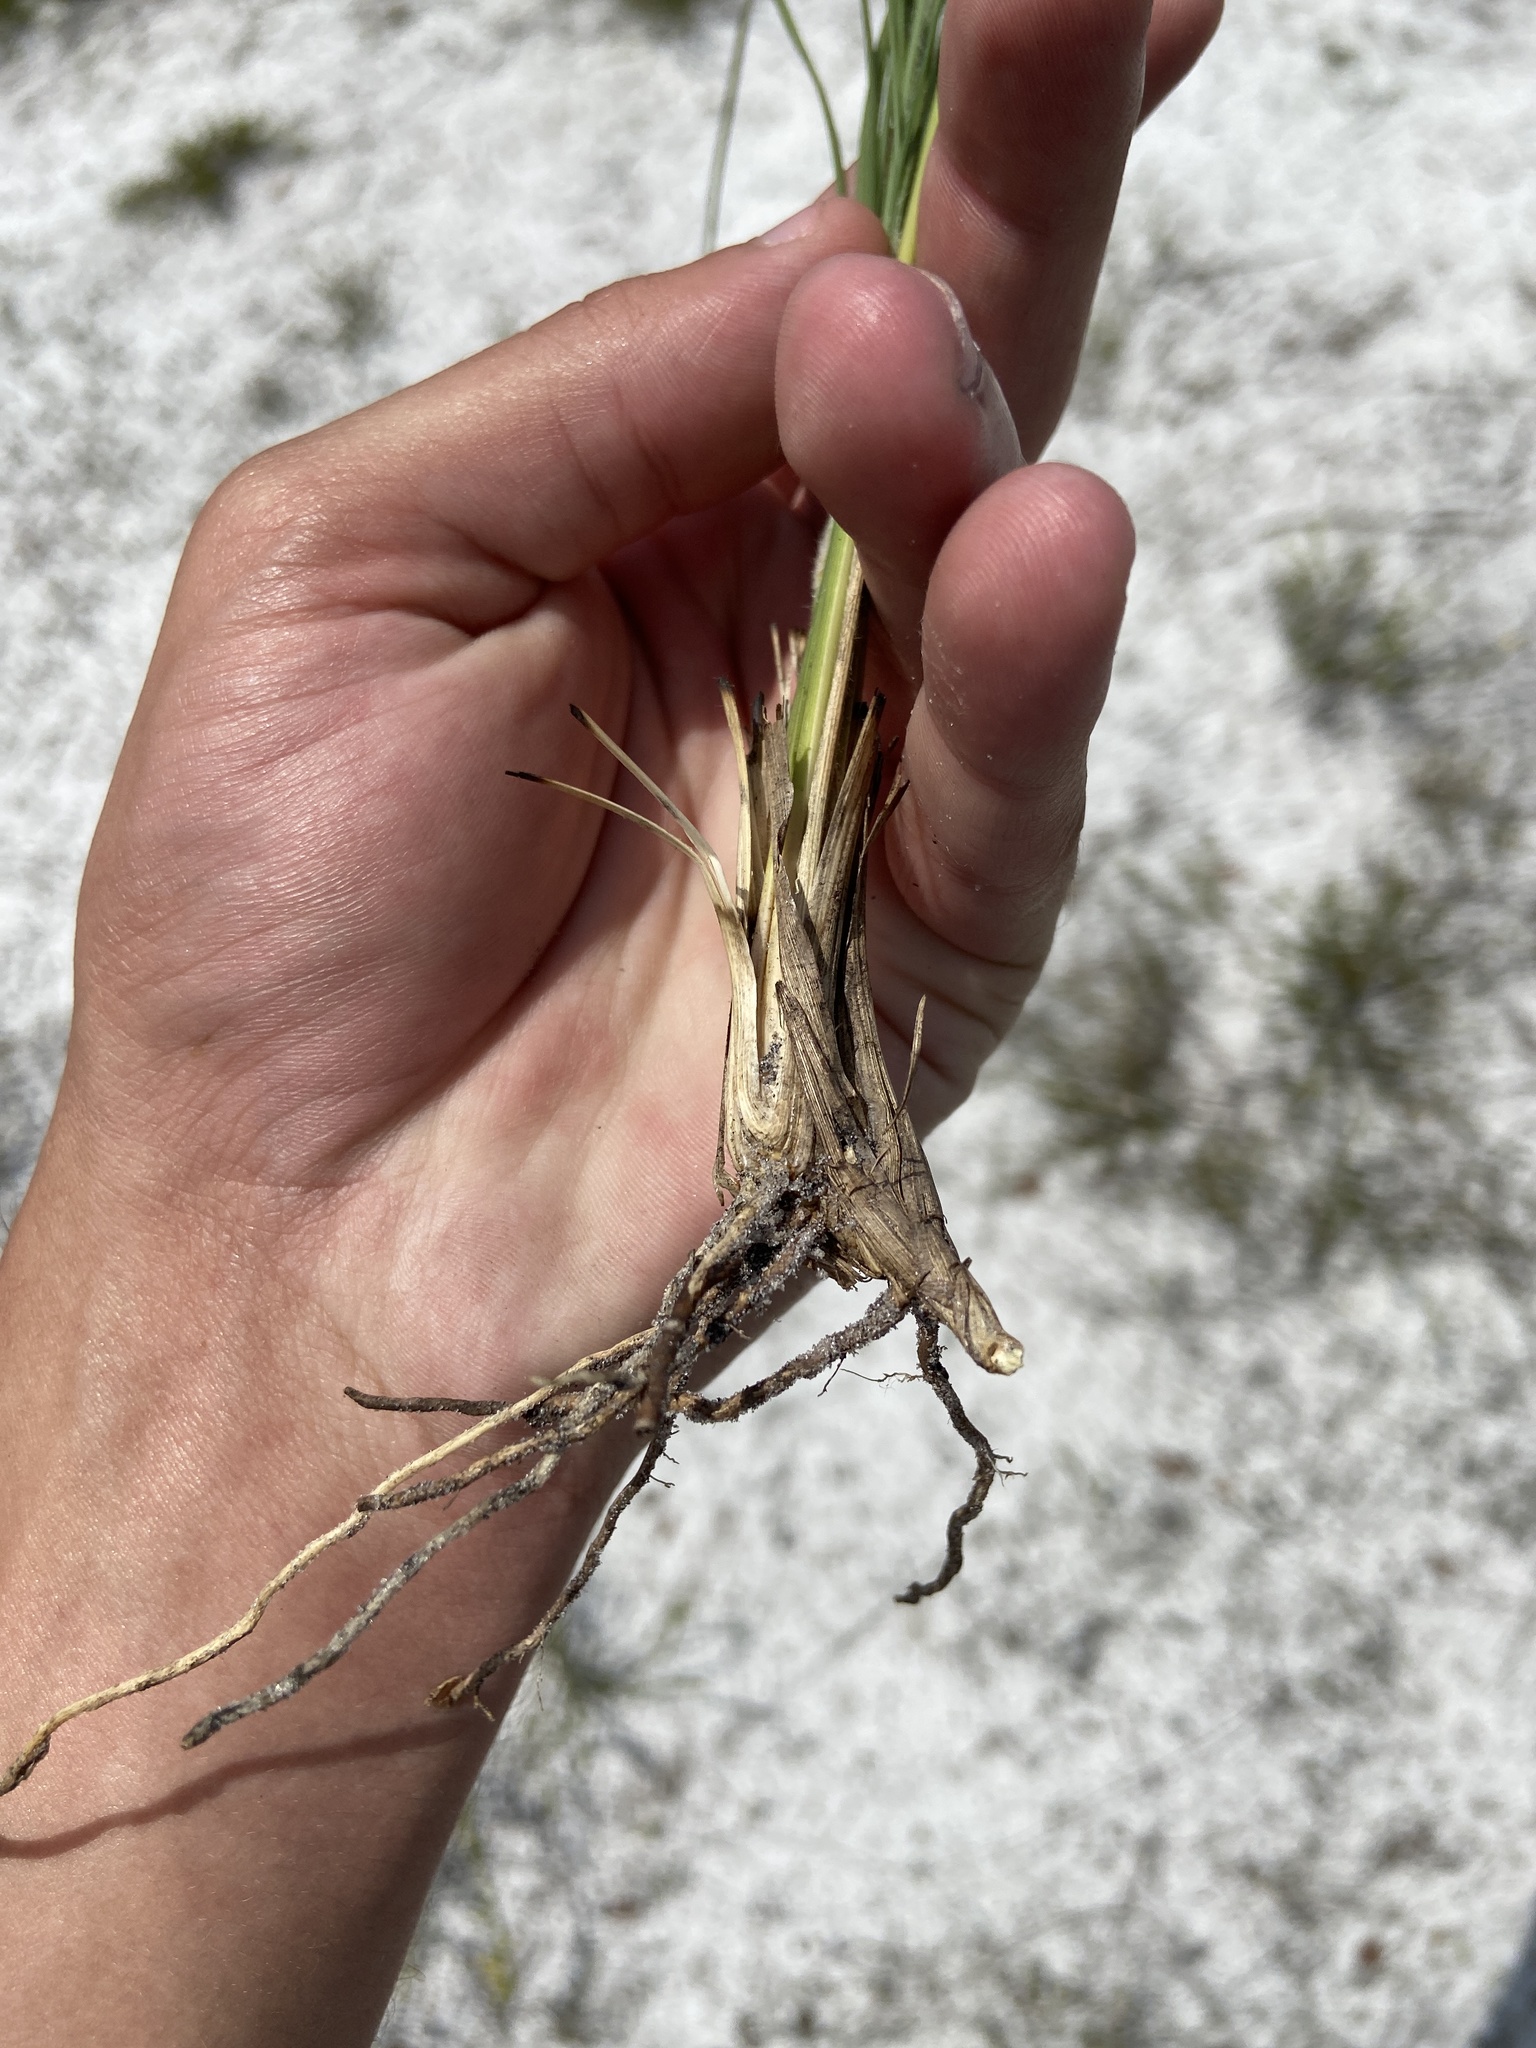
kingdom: Plantae
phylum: Tracheophyta
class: Liliopsida
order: Poales
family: Poaceae
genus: Aristida
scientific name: Aristida beyrichiana
